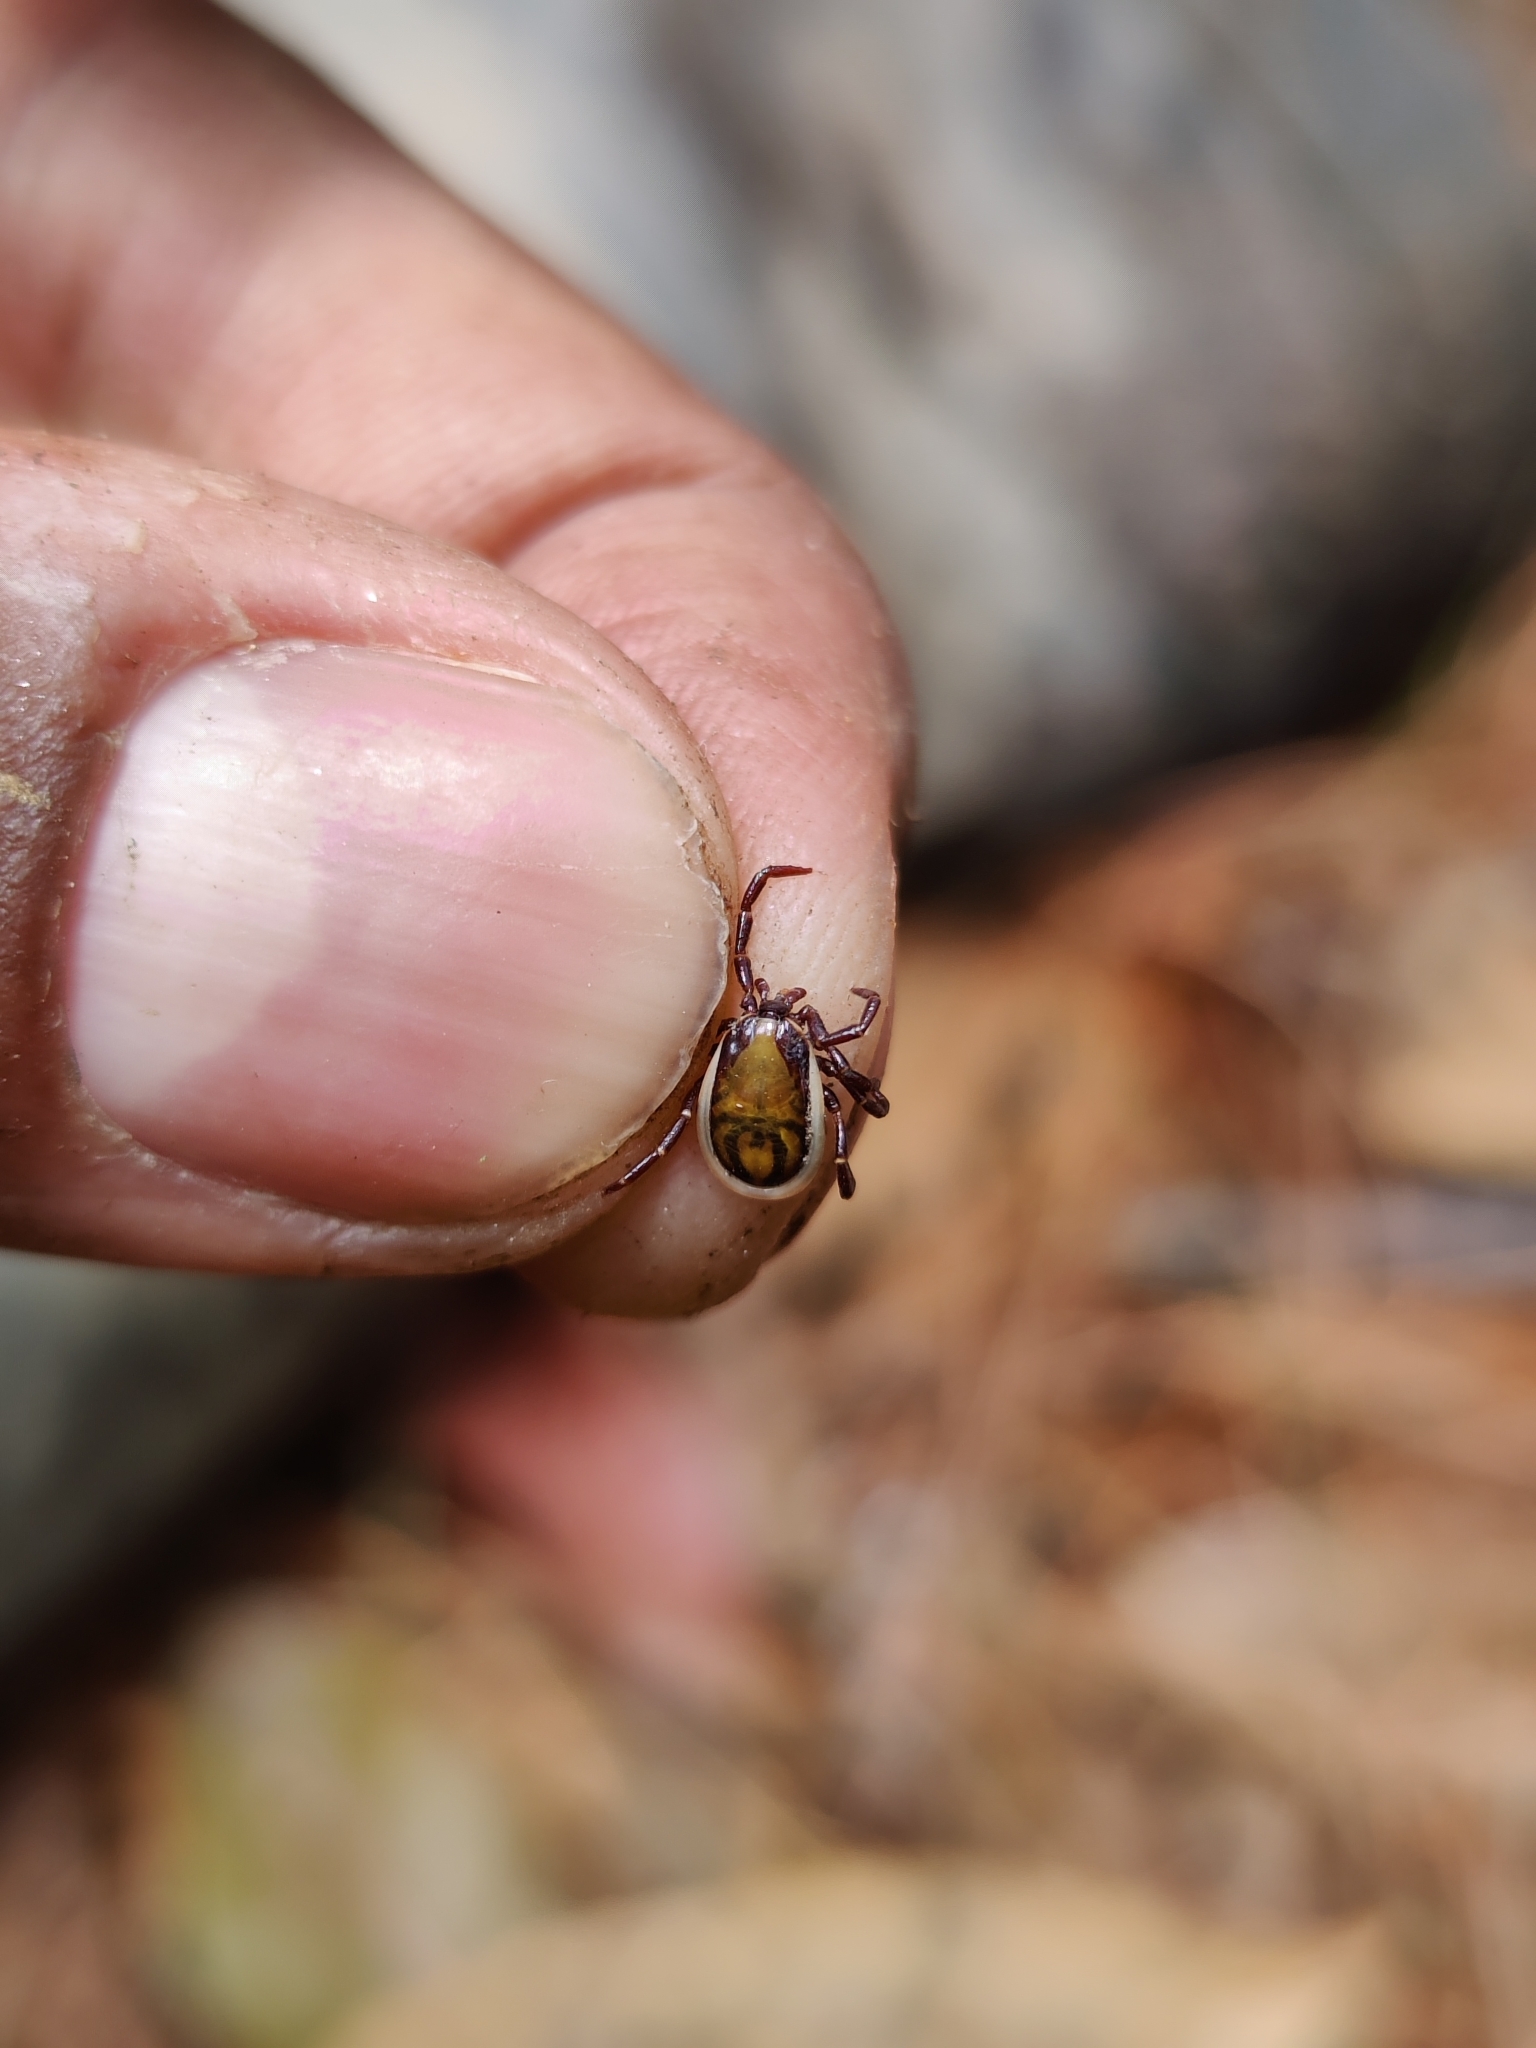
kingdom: Animalia
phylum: Arthropoda
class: Arachnida
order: Ixodida
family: Ixodidae
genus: Ixodes
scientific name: Ixodes acutitarsus
